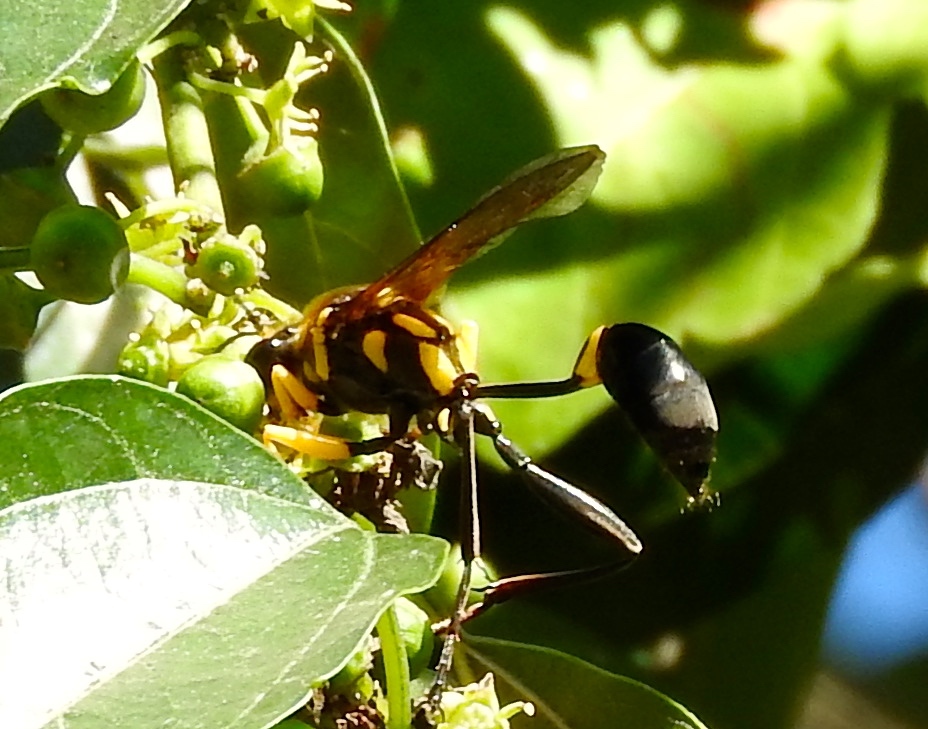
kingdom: Animalia
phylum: Arthropoda
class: Insecta
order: Hymenoptera
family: Sphecidae
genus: Sceliphron
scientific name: Sceliphron fistularium
